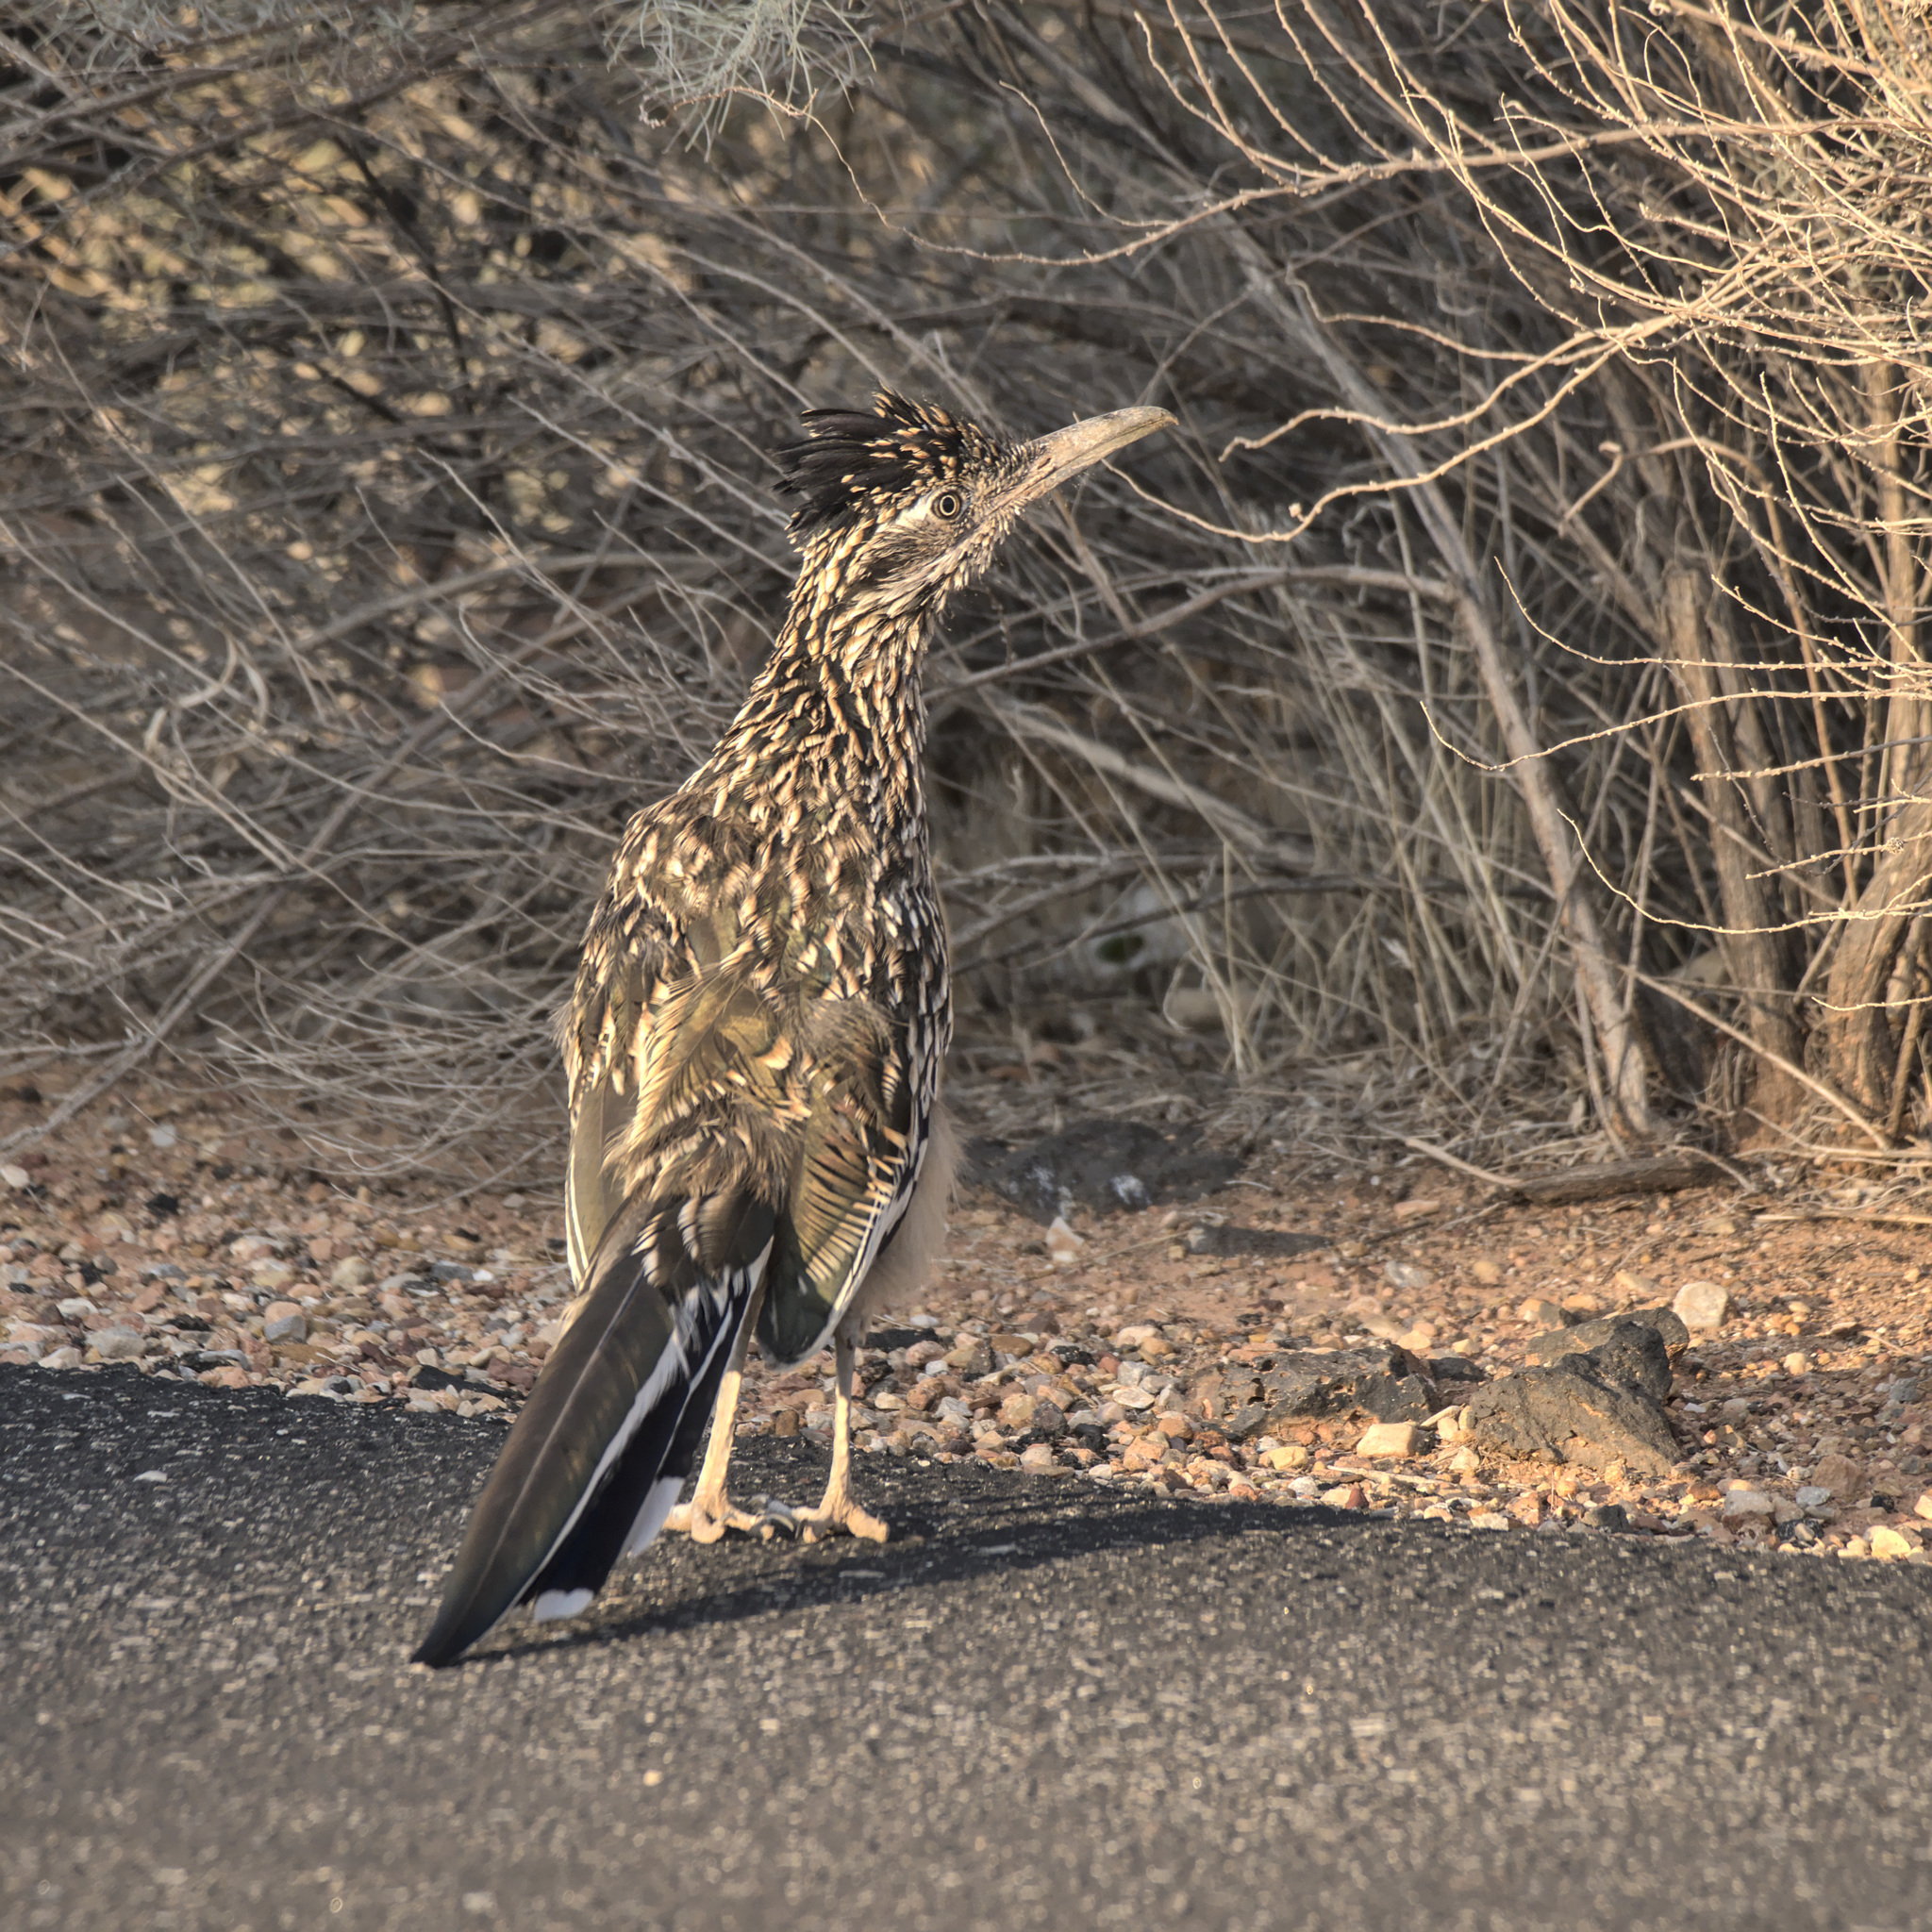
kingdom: Animalia
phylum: Chordata
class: Aves
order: Cuculiformes
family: Cuculidae
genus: Geococcyx
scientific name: Geococcyx californianus
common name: Greater roadrunner
